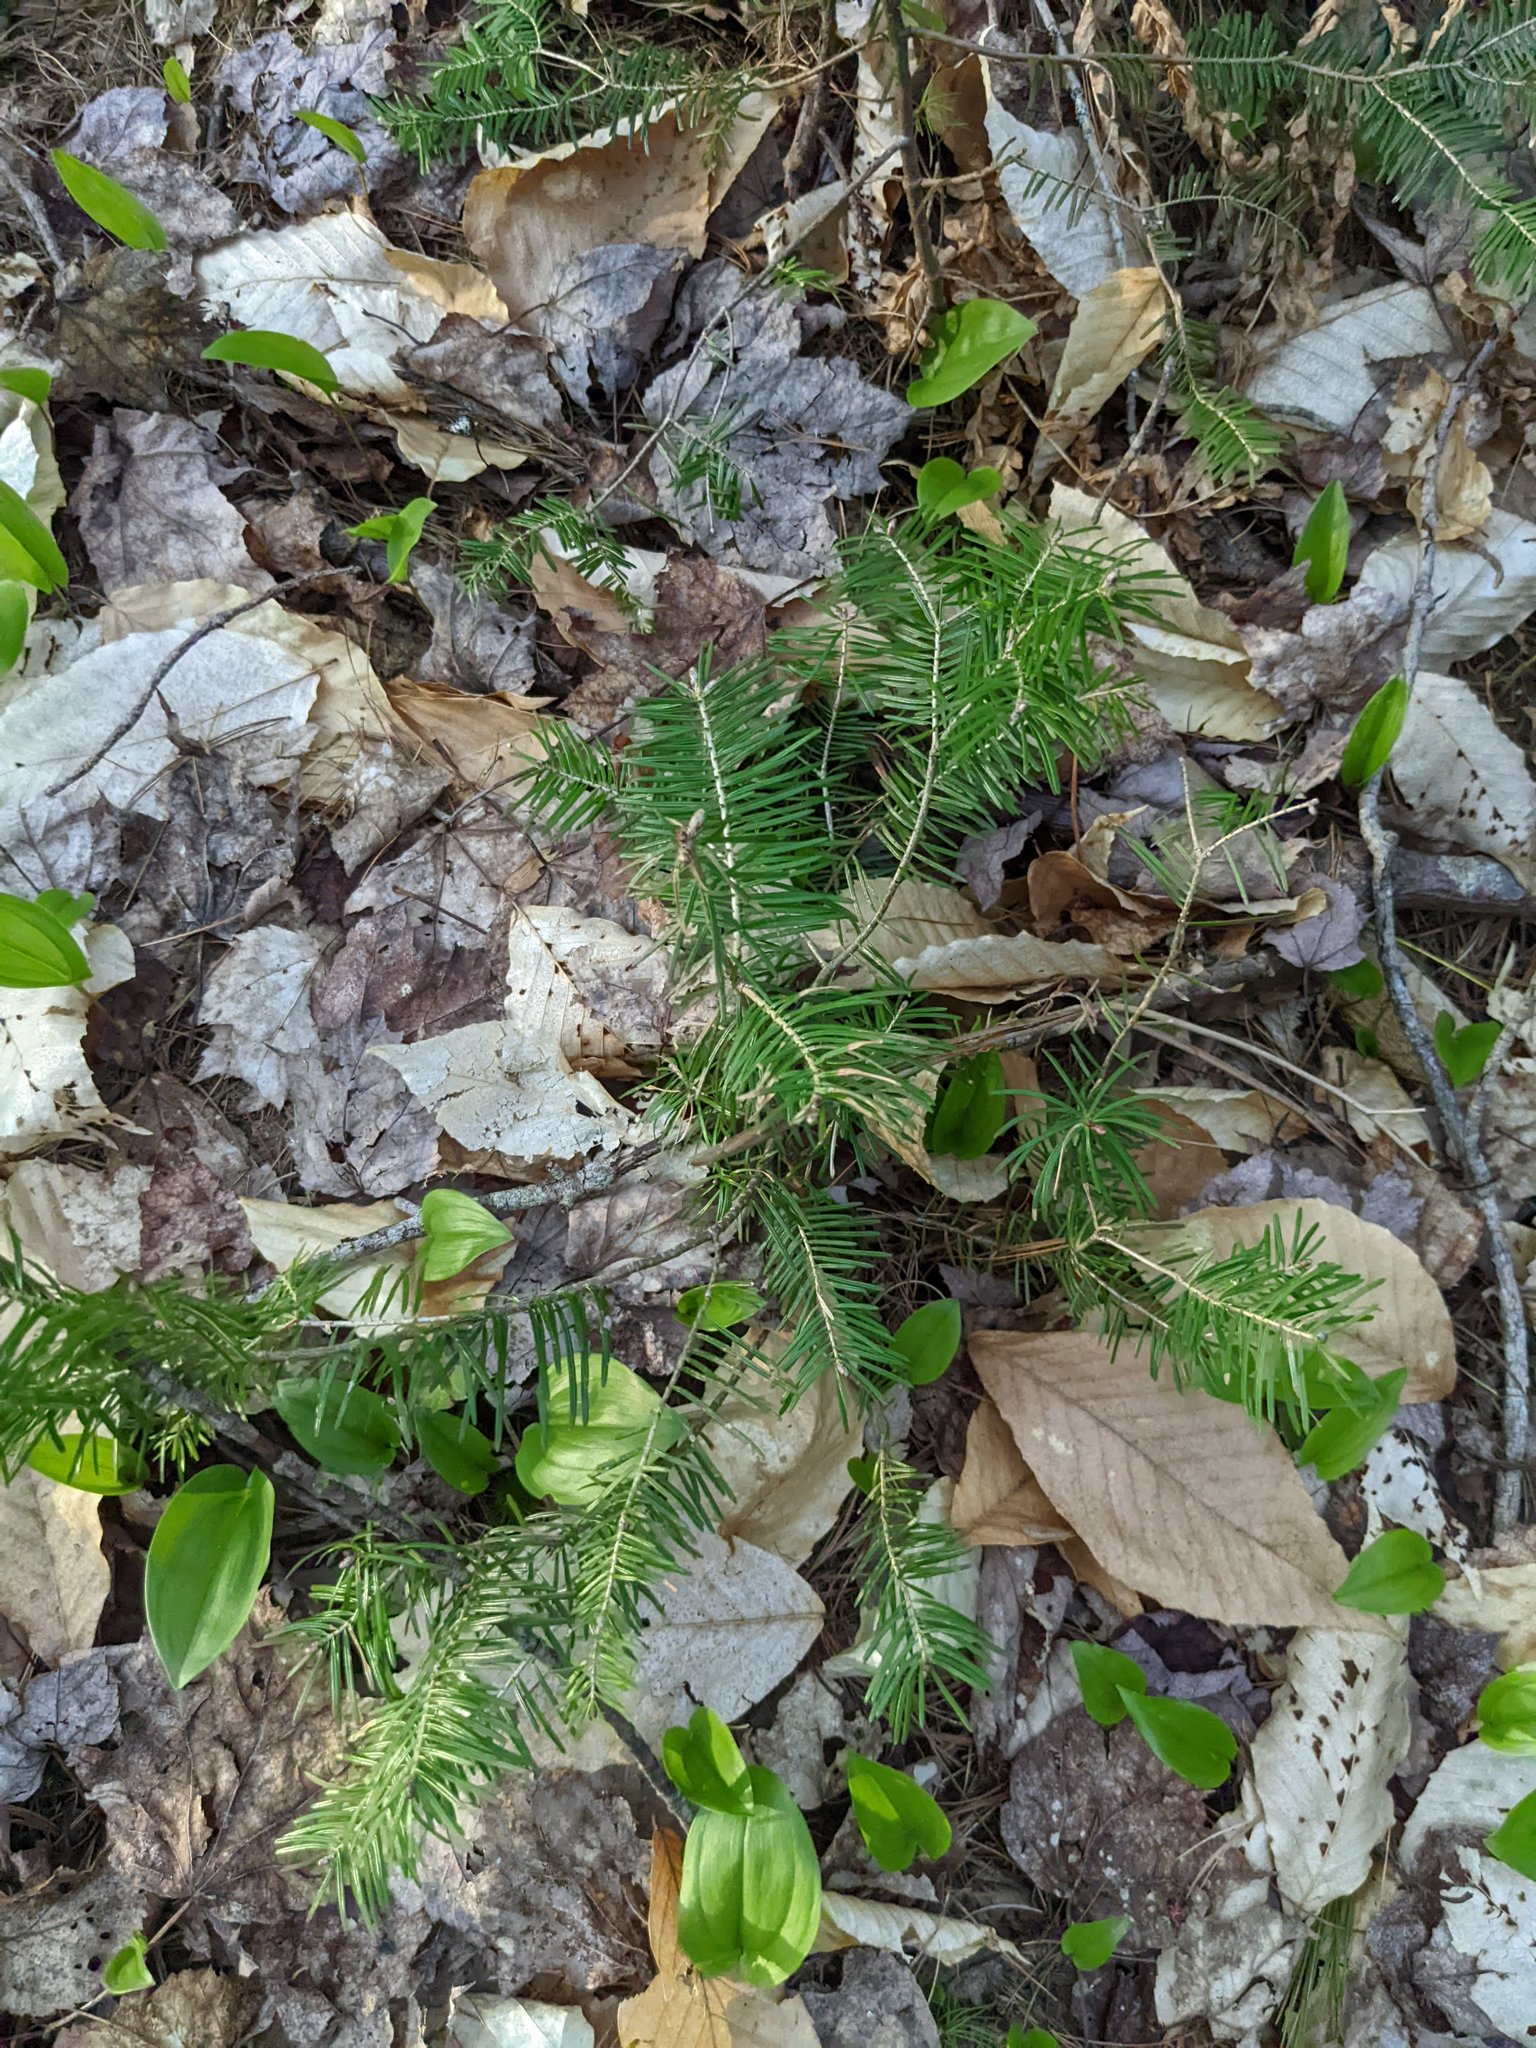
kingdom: Plantae
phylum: Tracheophyta
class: Pinopsida
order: Pinales
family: Pinaceae
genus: Abies
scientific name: Abies balsamea
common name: Balsam fir
